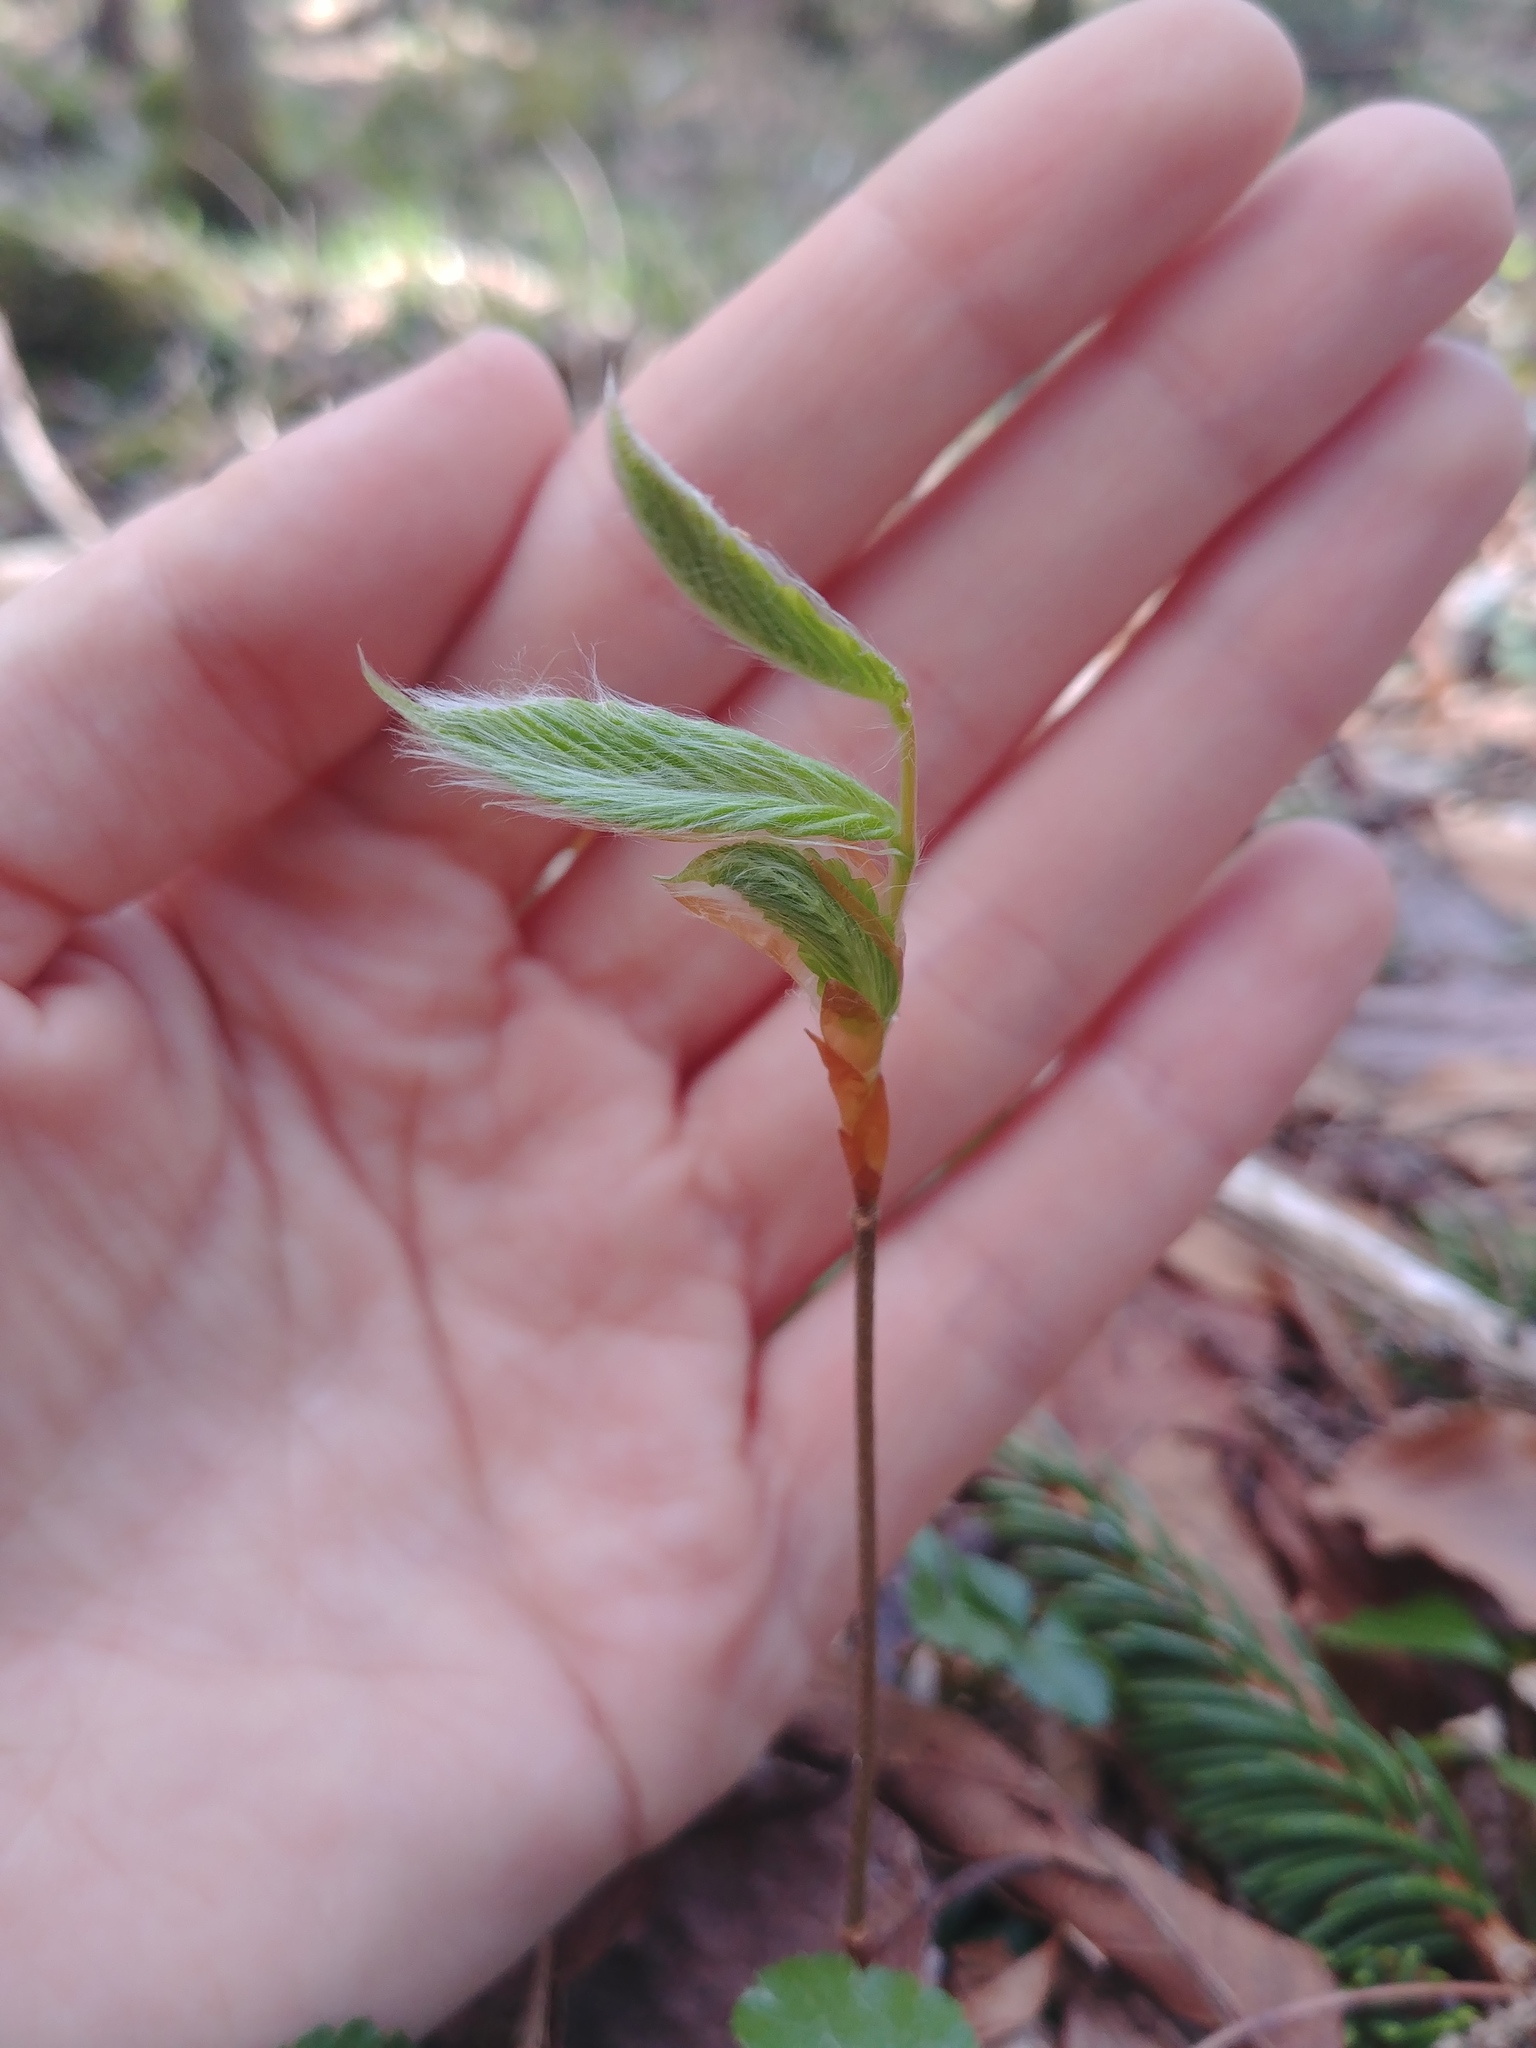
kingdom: Plantae
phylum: Tracheophyta
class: Magnoliopsida
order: Fagales
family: Fagaceae
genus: Fagus
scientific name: Fagus grandifolia
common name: American beech
